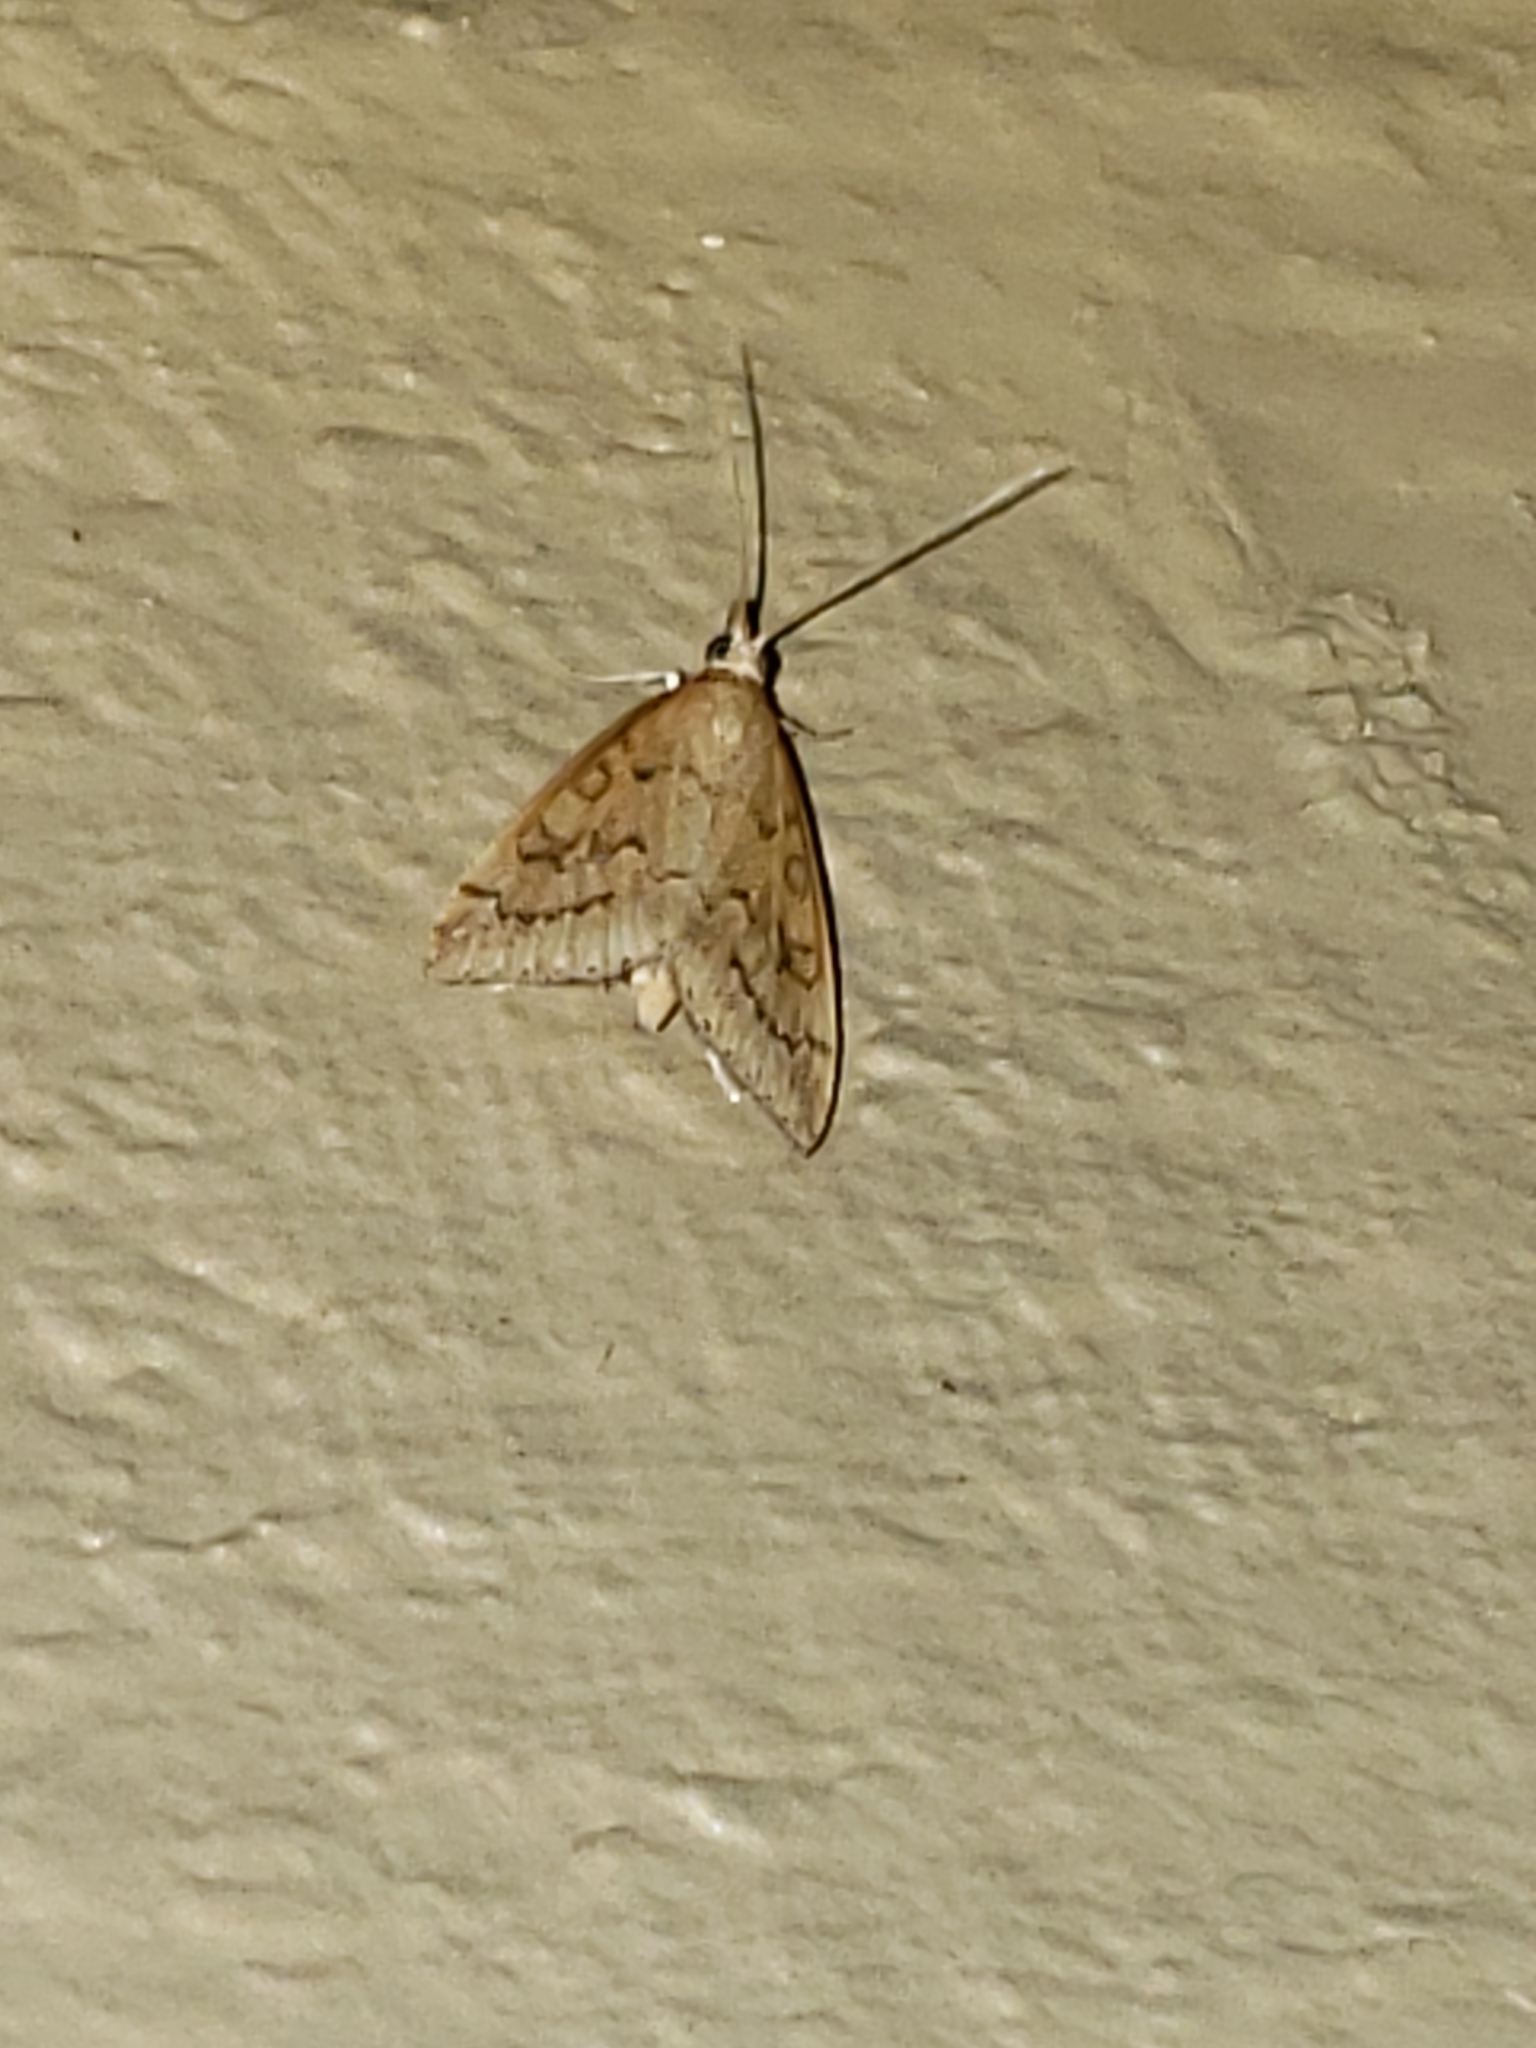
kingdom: Animalia
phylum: Arthropoda
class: Insecta
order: Lepidoptera
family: Crambidae
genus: Udea
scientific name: Udea rubigalis
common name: Celery leaftier moth
